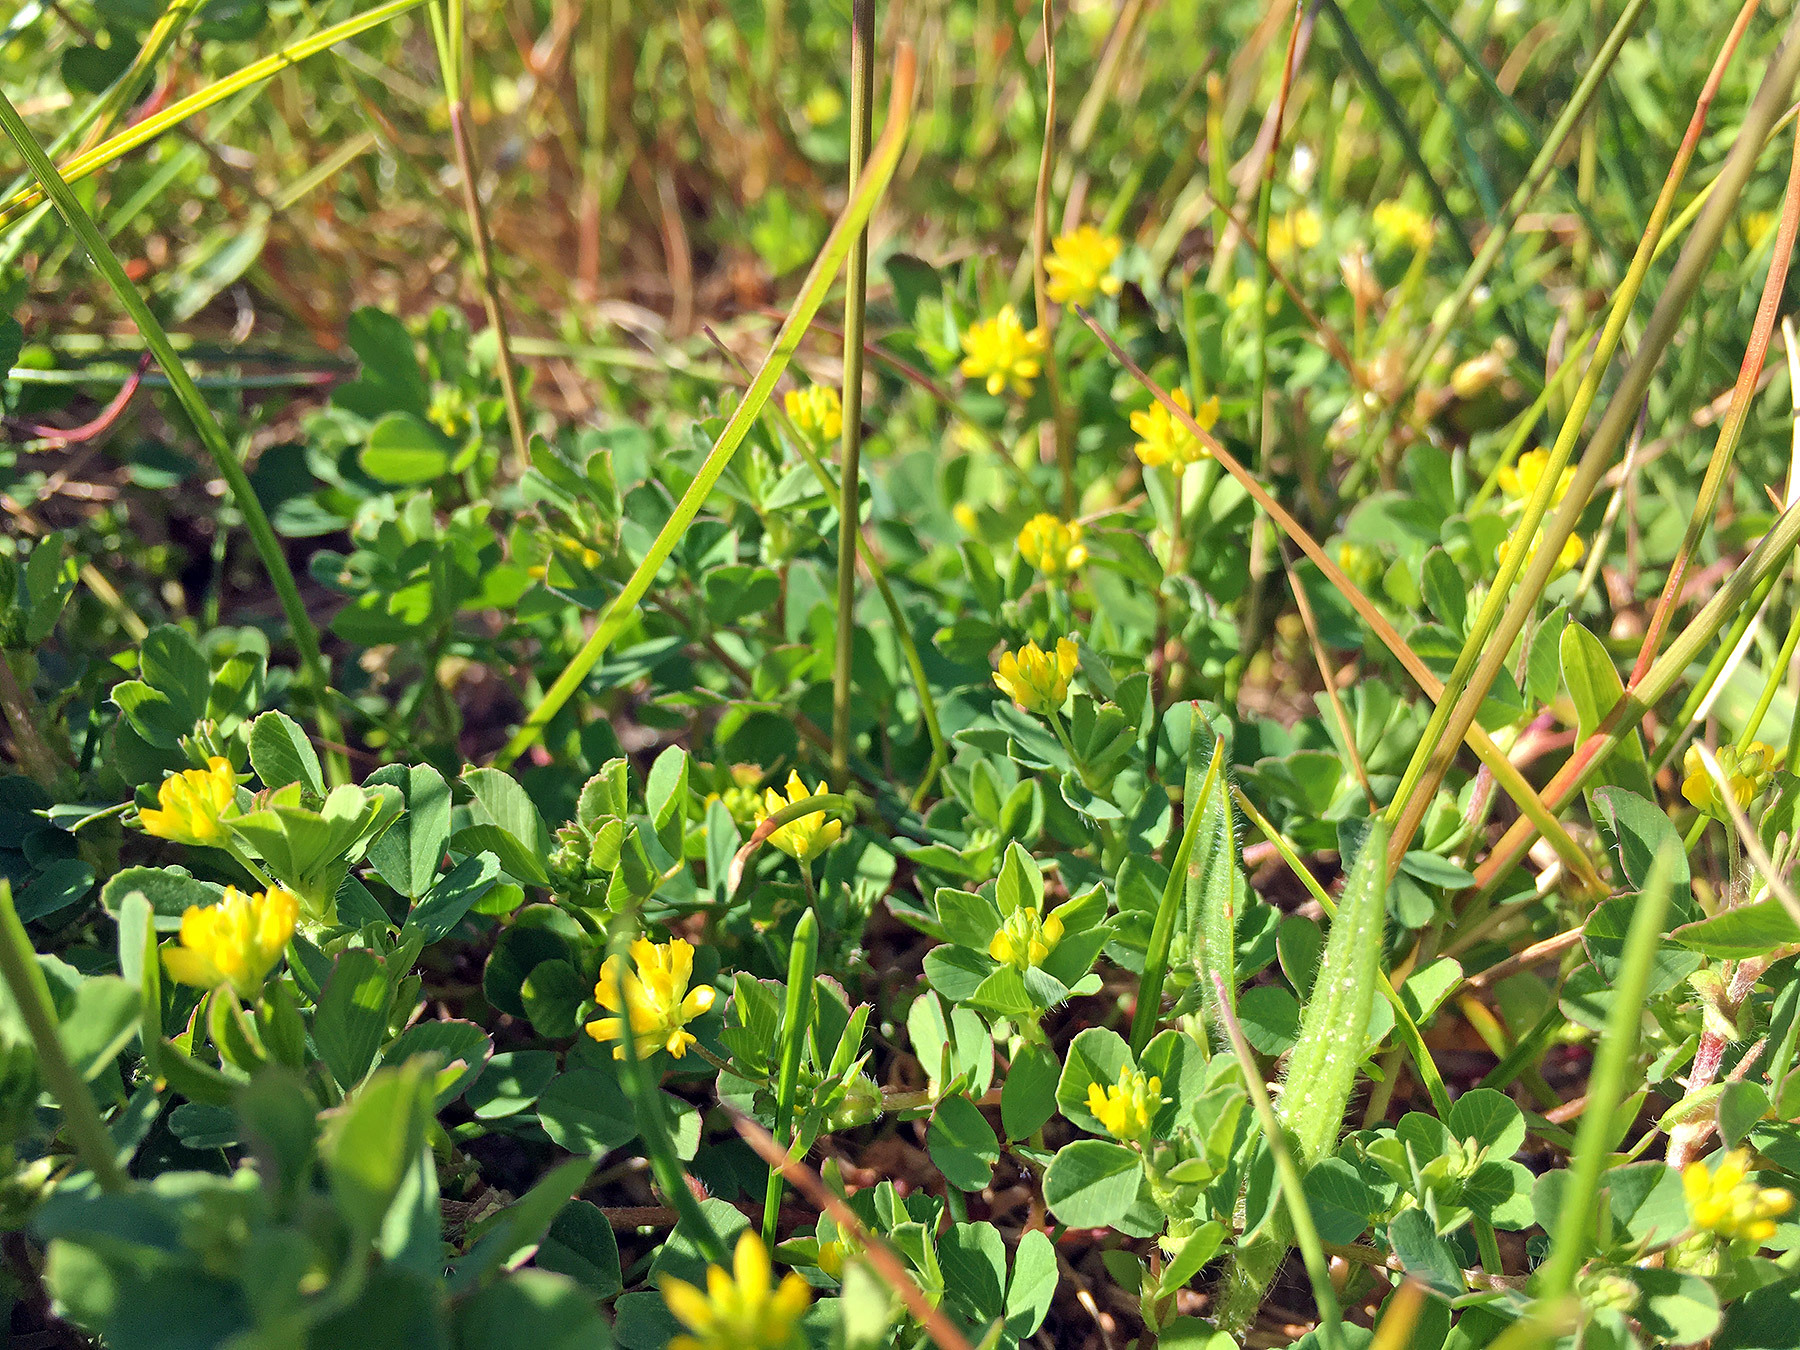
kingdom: Plantae
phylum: Tracheophyta
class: Magnoliopsida
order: Fabales
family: Fabaceae
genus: Trifolium
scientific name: Trifolium dubium
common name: Suckling clover
